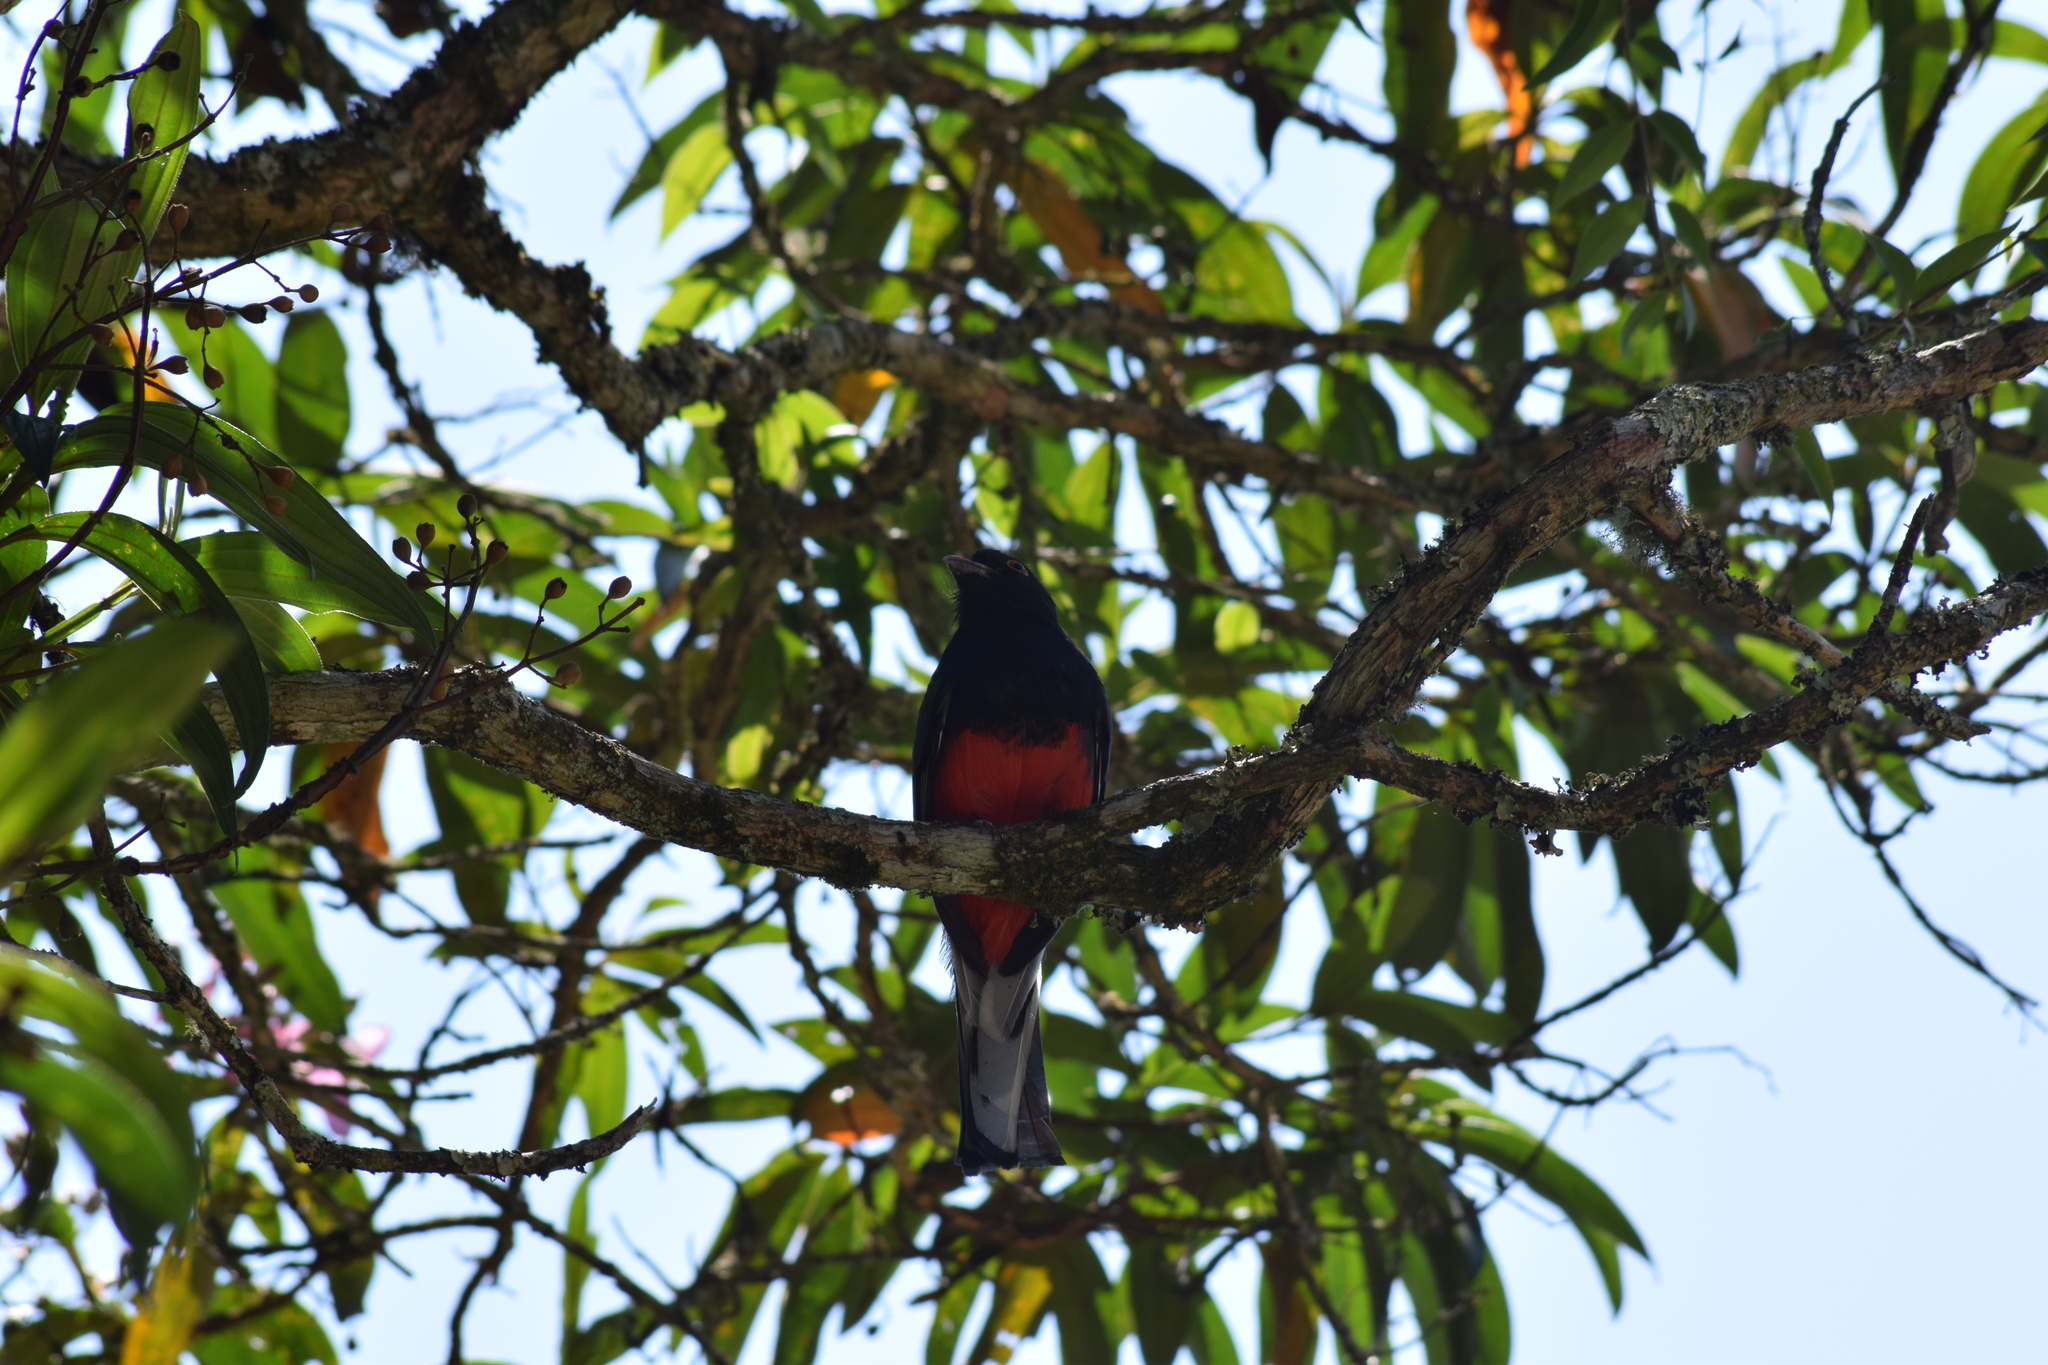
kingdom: Animalia
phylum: Chordata
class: Aves
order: Trogoniformes
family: Trogonidae
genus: Trogon
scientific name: Trogon surrucura
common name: Surucua trogon
